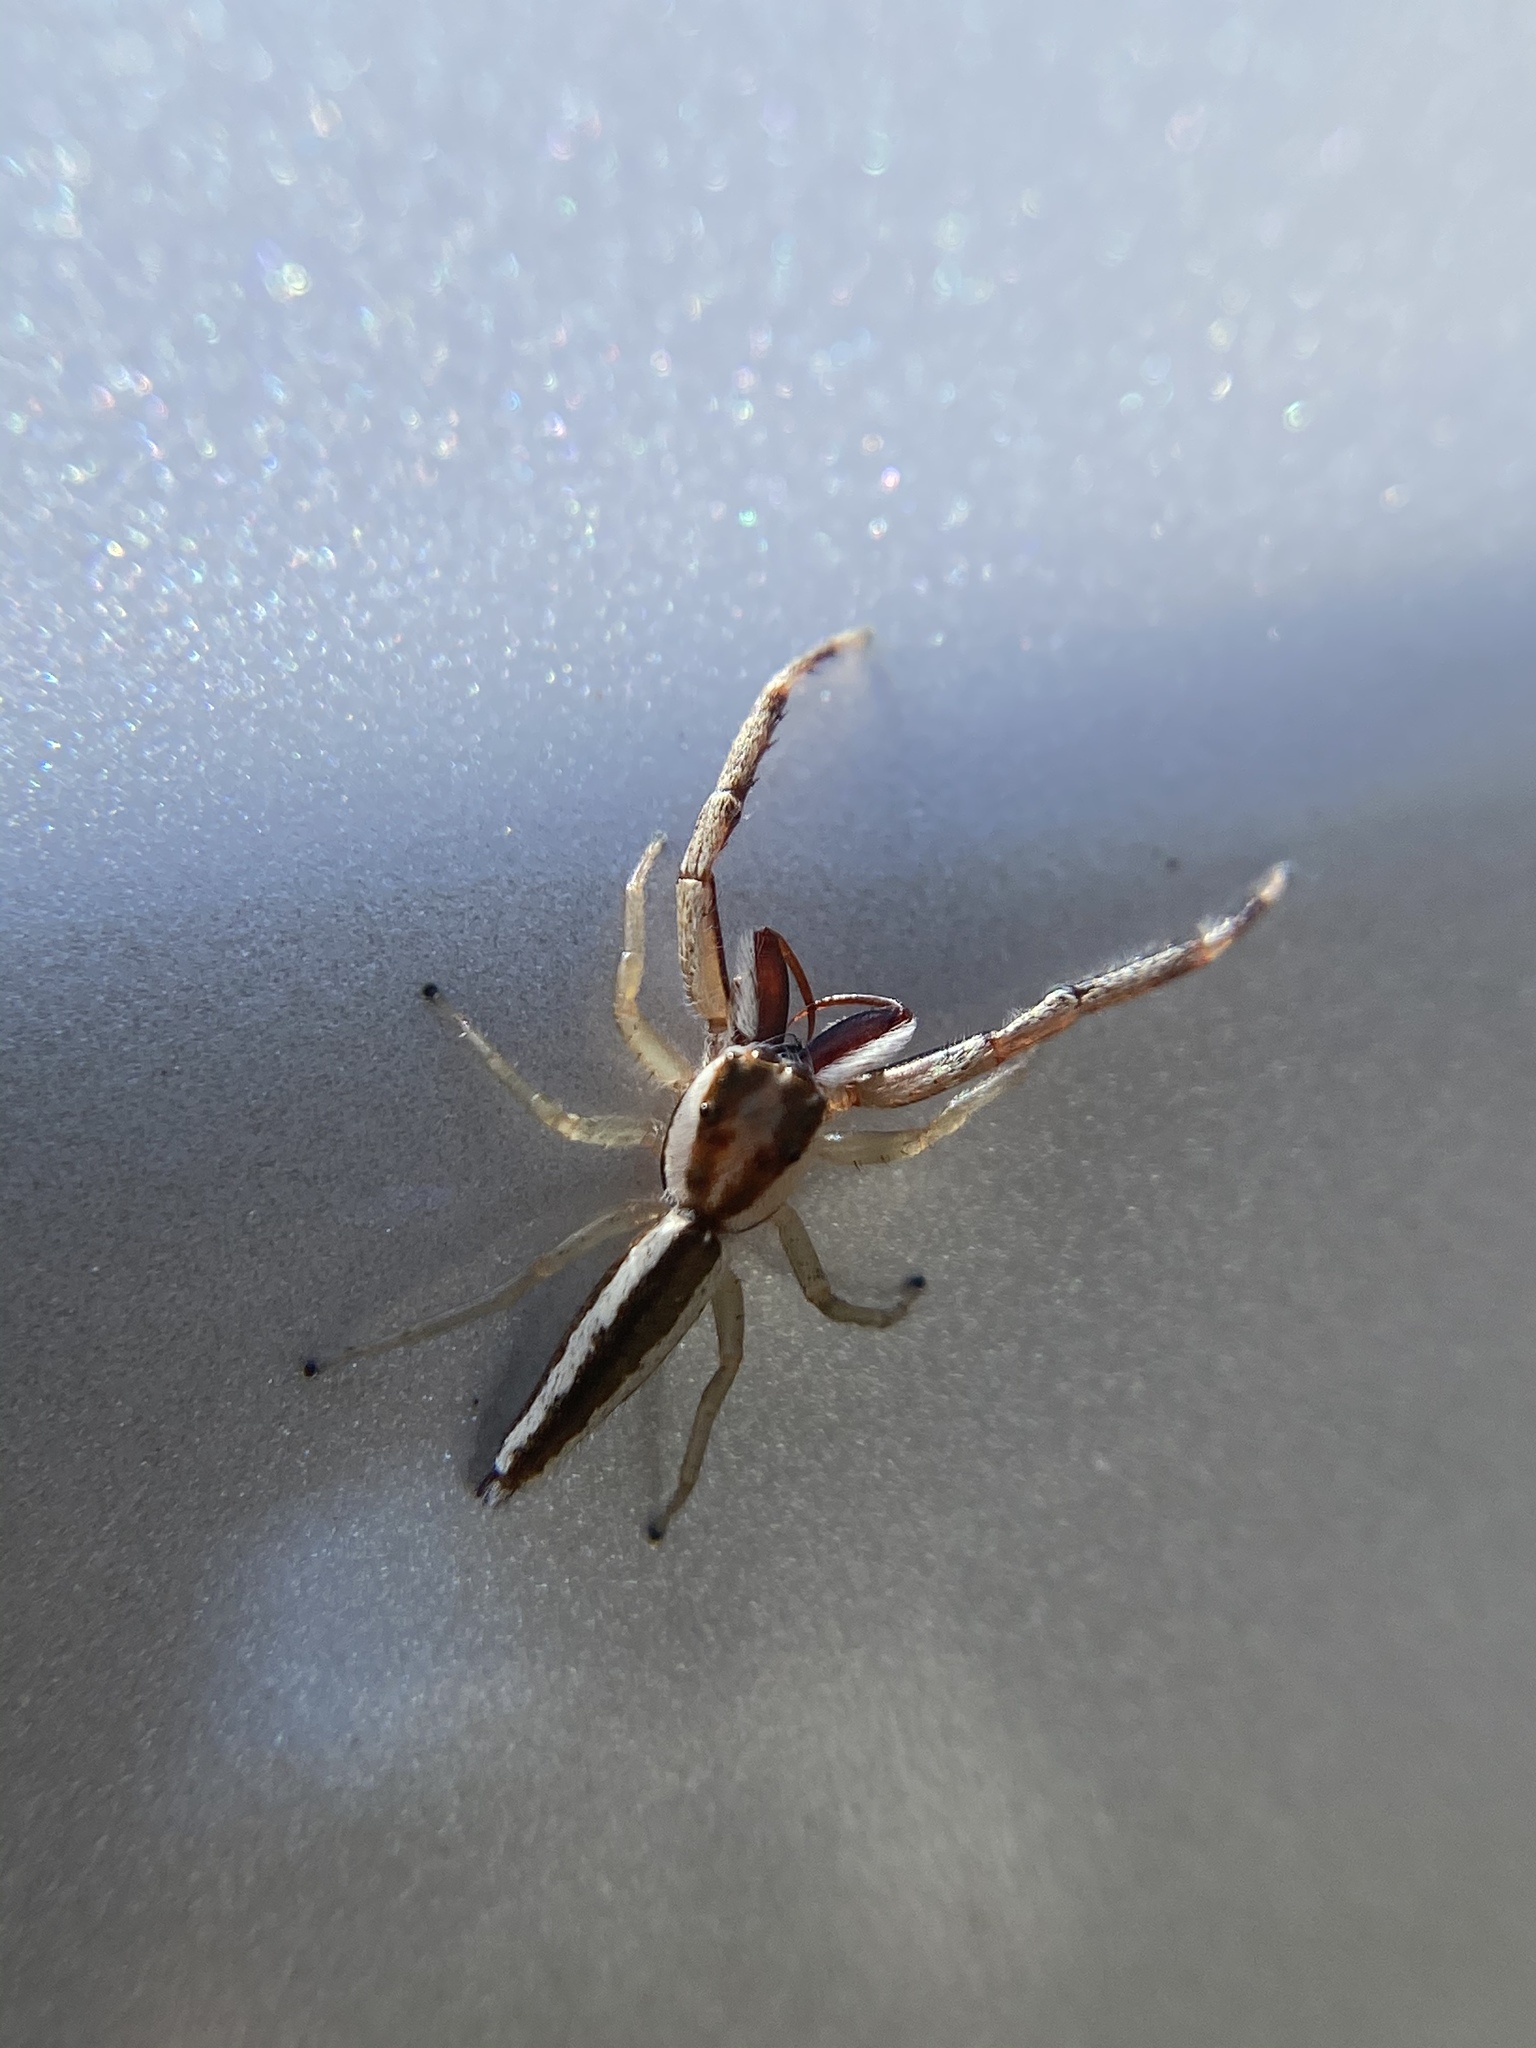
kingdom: Animalia
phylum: Arthropoda
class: Arachnida
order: Araneae
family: Salticidae
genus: Hentzia
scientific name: Hentzia grenada
